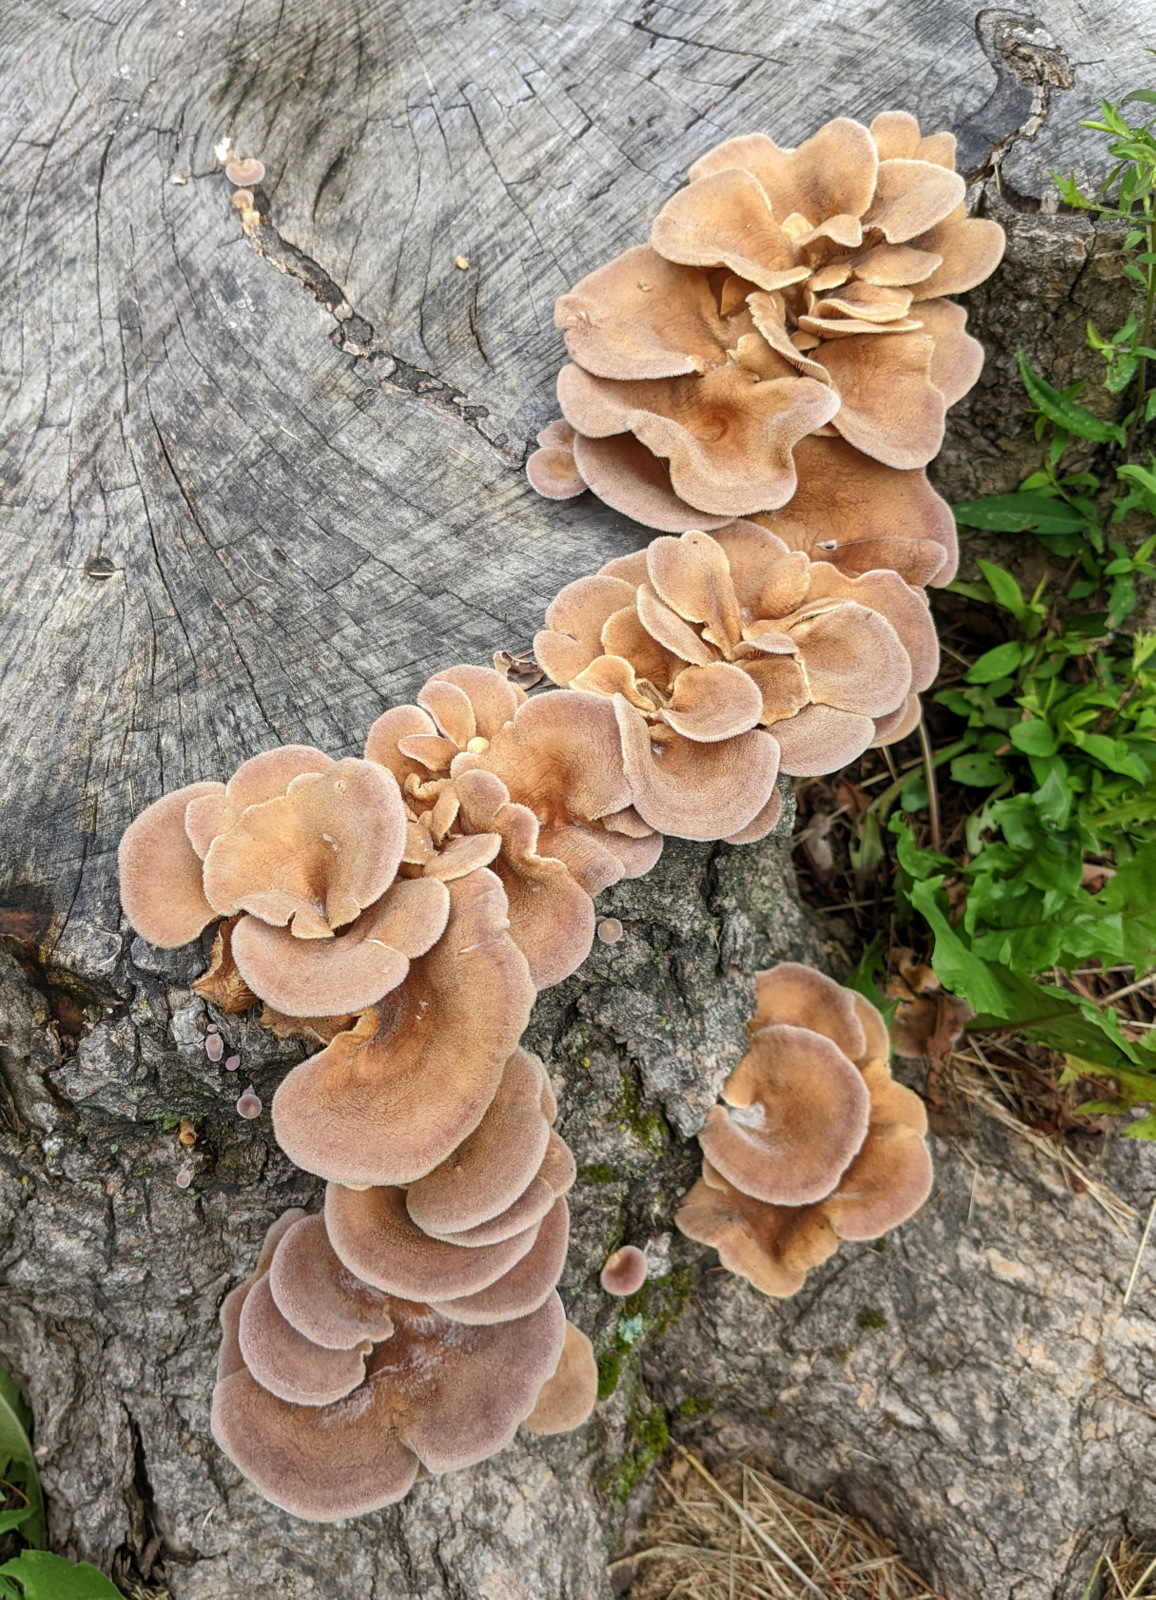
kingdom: Fungi
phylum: Basidiomycota
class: Agaricomycetes
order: Polyporales
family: Panaceae
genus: Panus
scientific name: Panus neostrigosus
